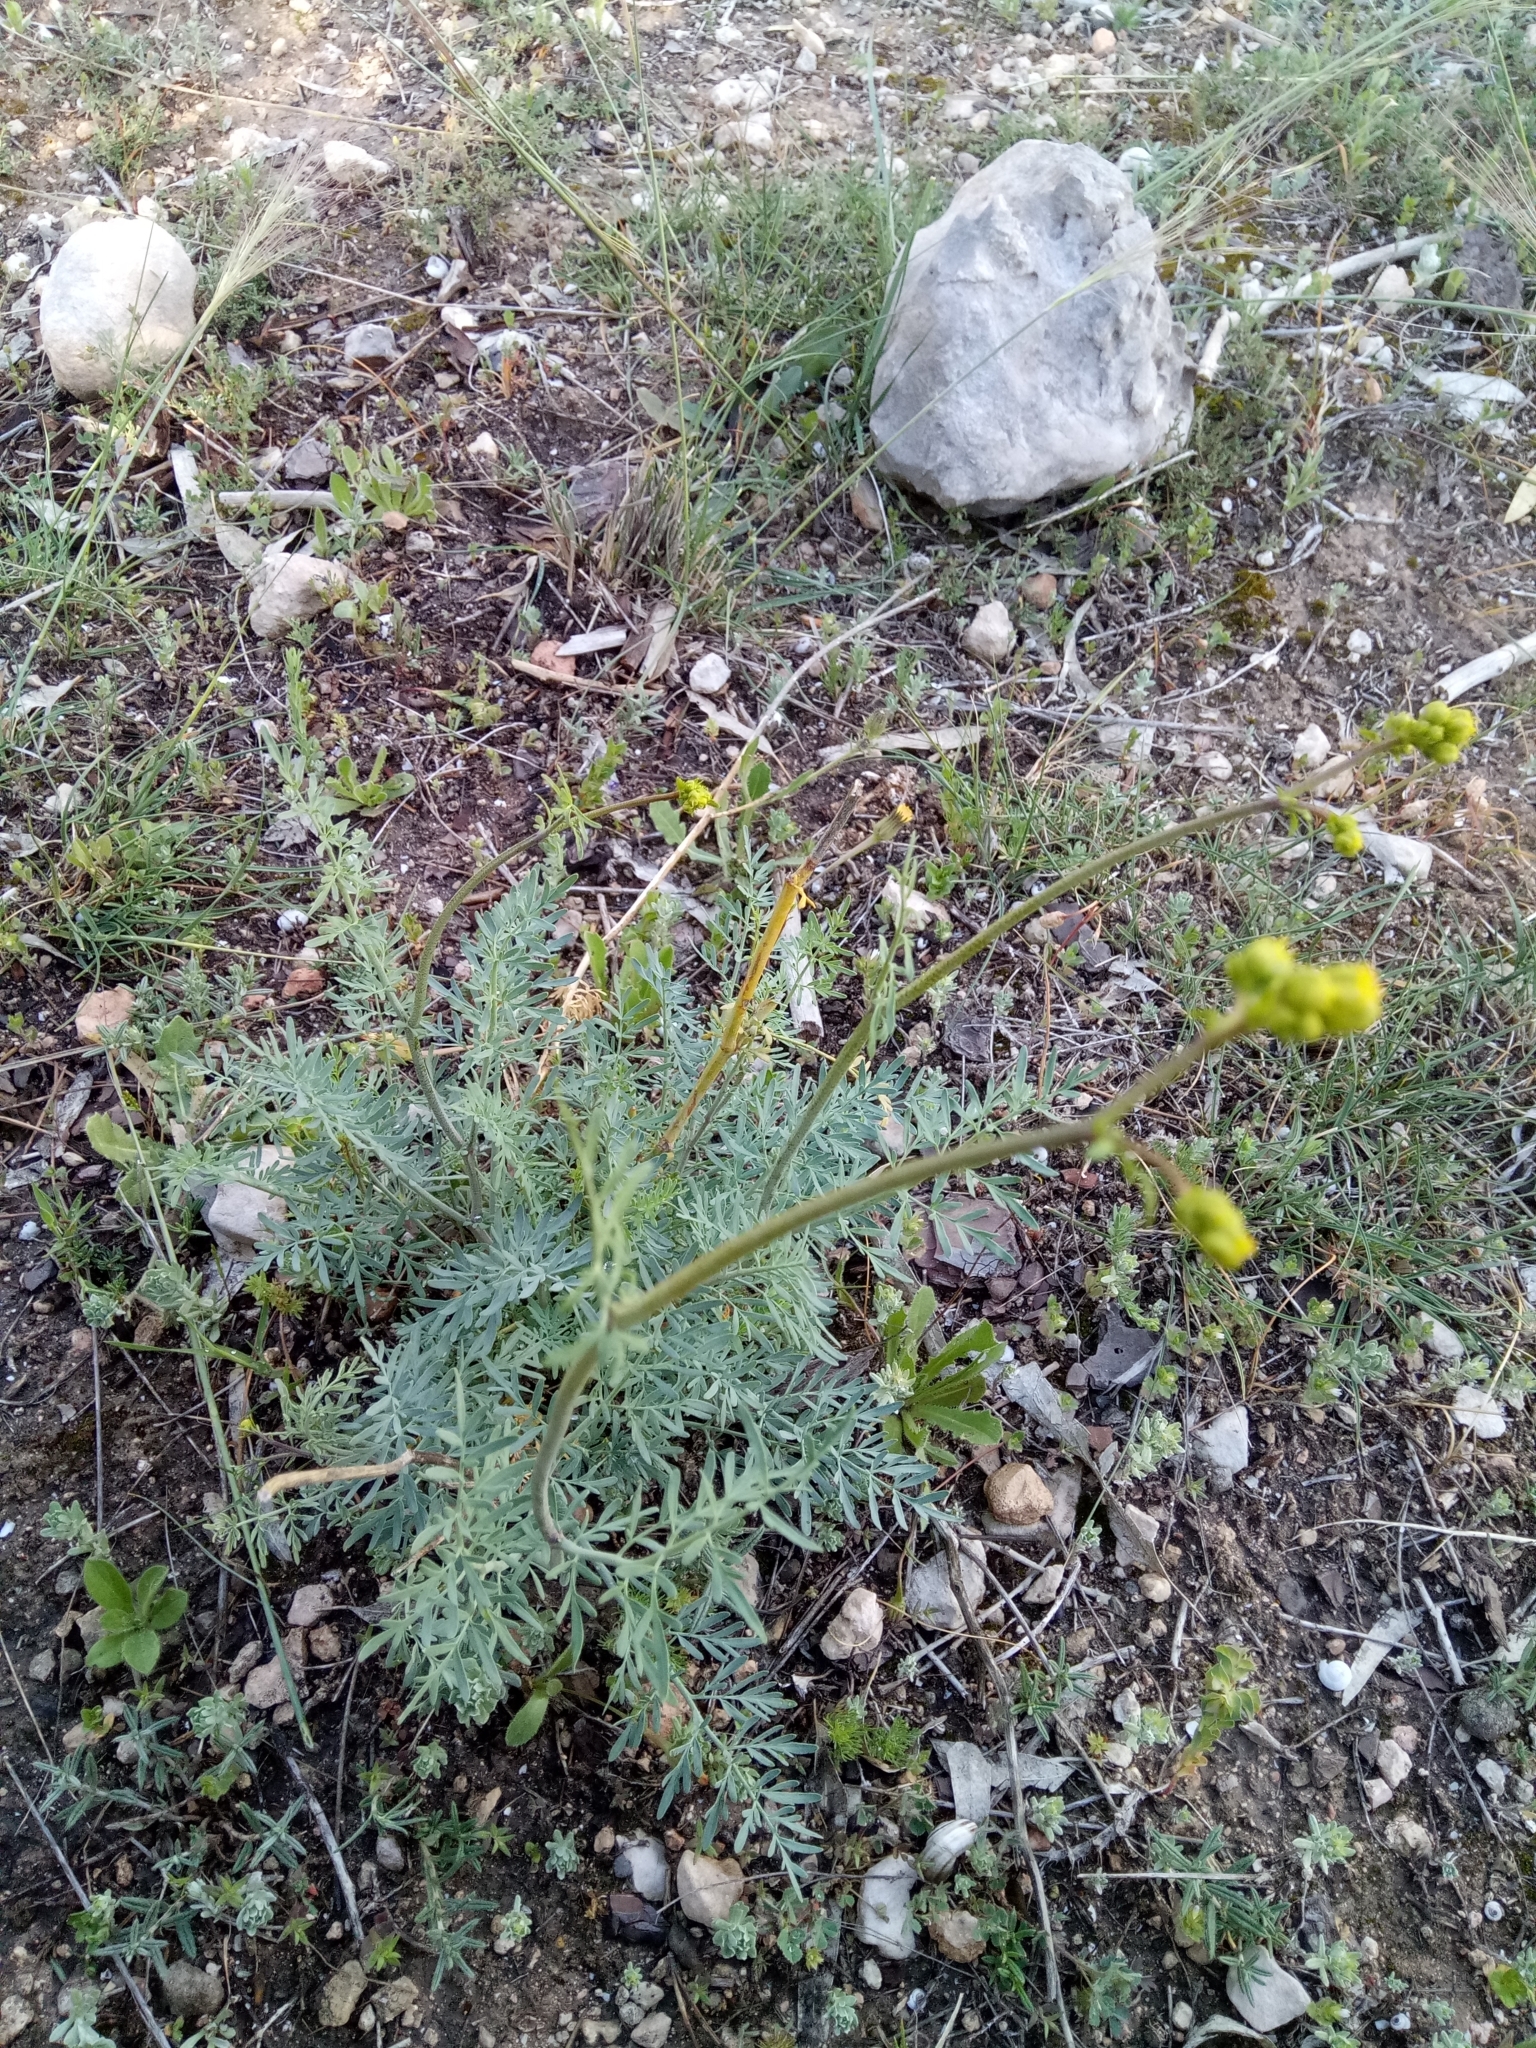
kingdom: Plantae
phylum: Tracheophyta
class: Magnoliopsida
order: Sapindales
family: Rutaceae
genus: Ruta
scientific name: Ruta angustifolia
